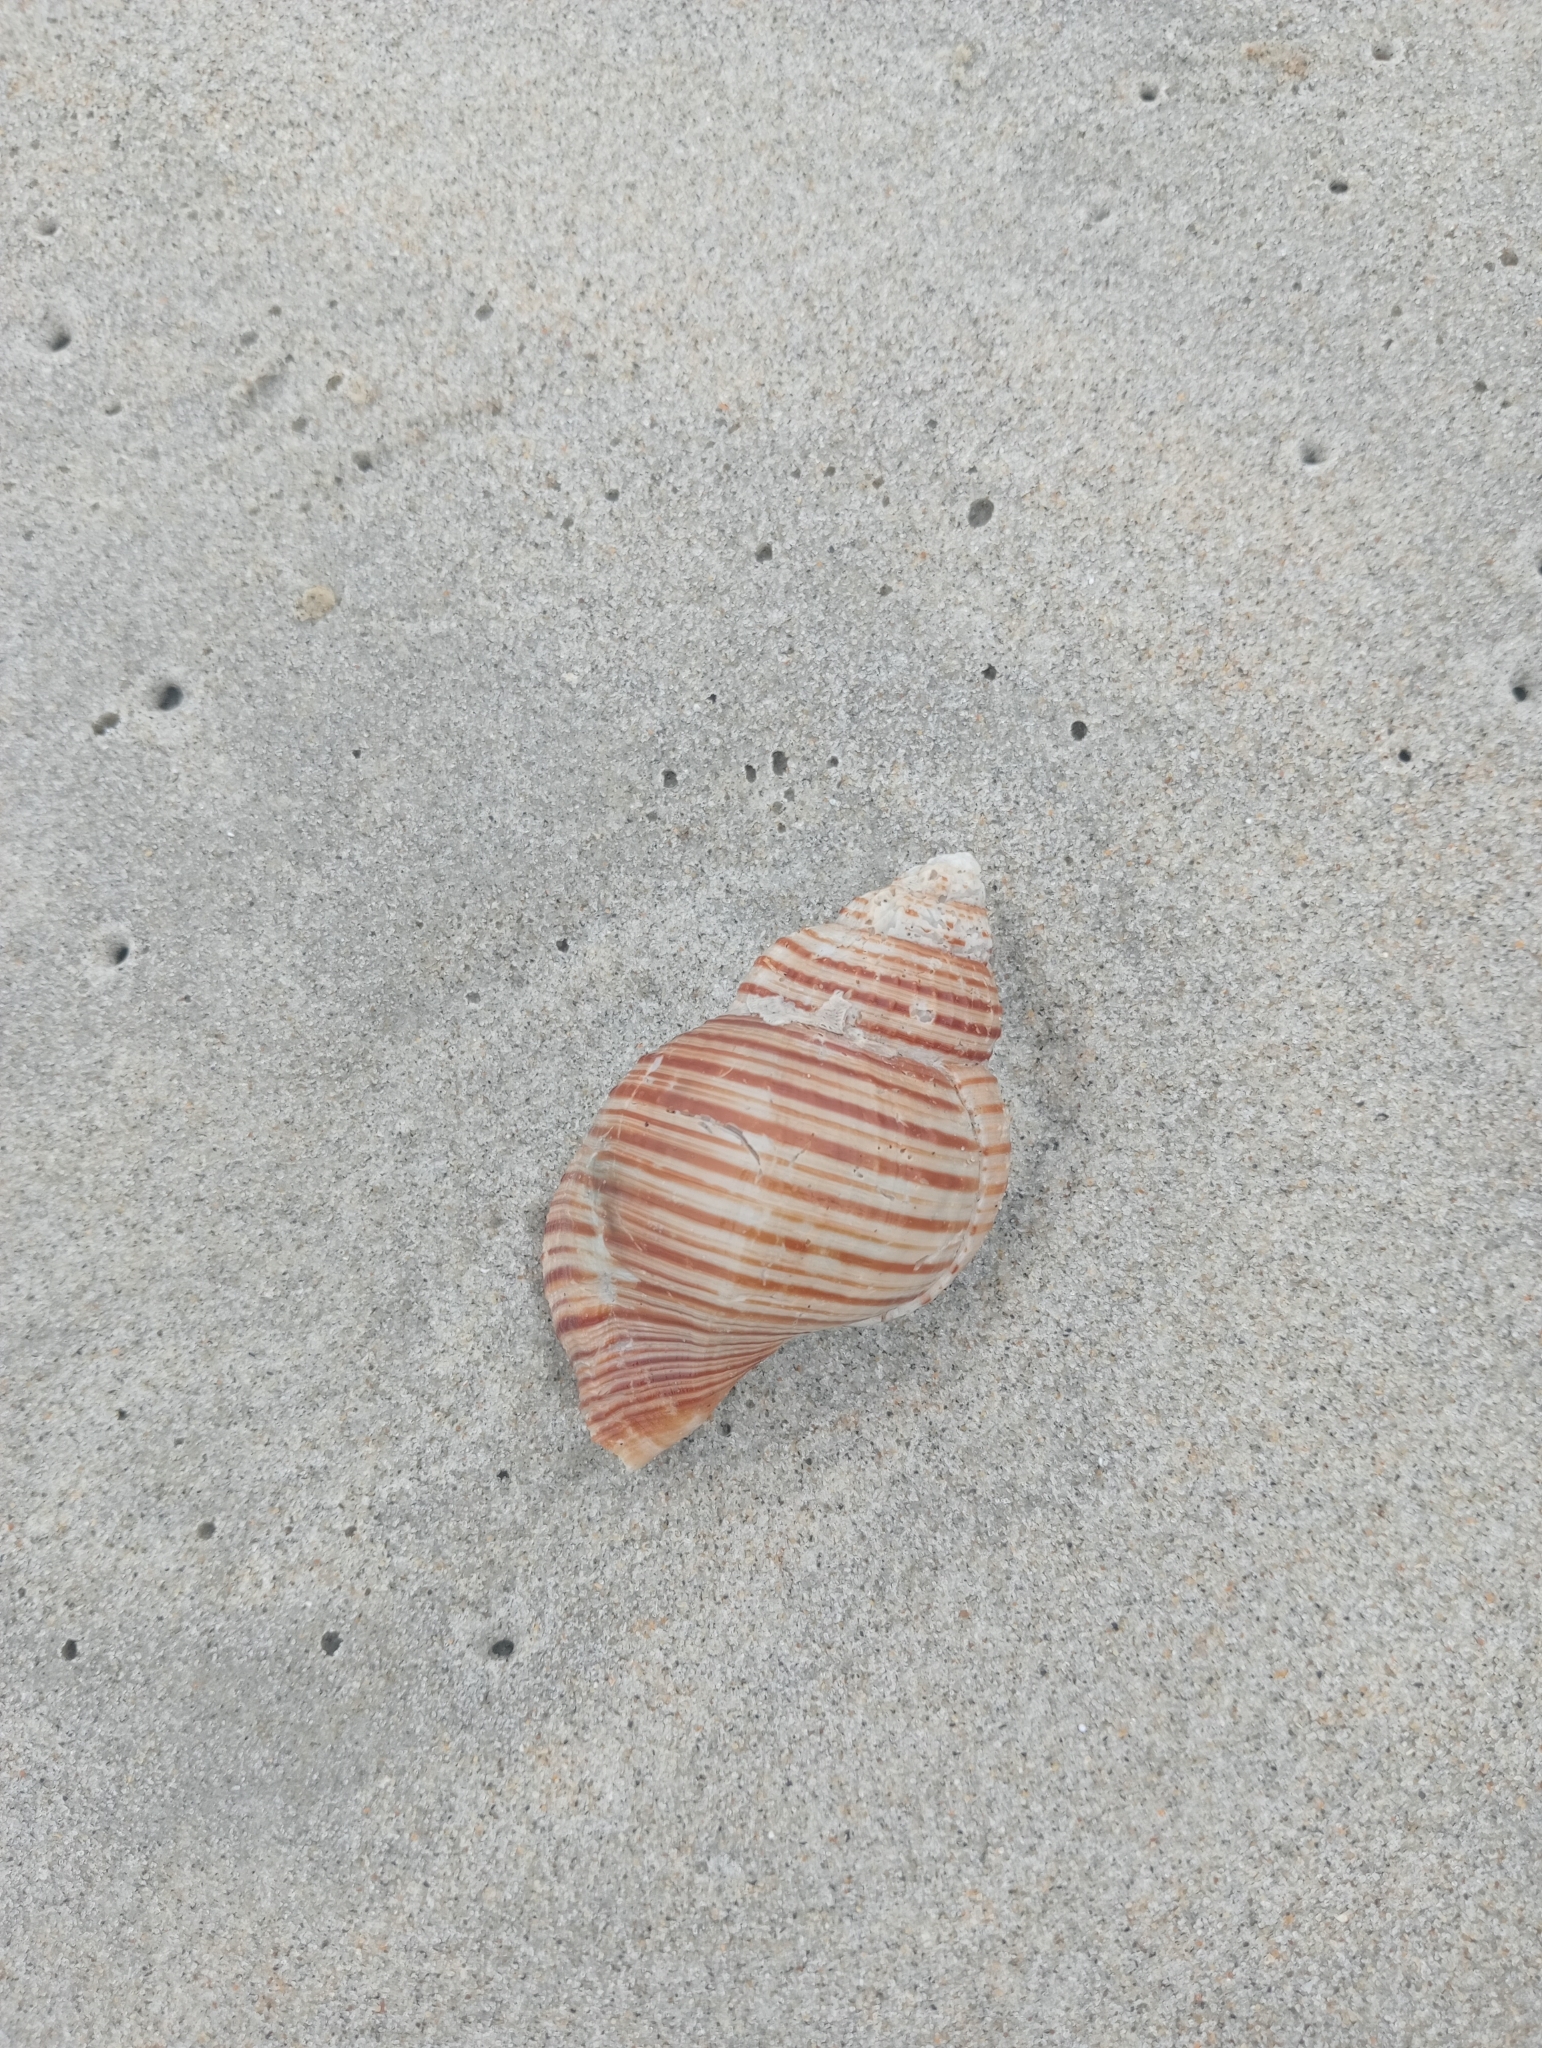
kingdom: Animalia
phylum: Mollusca
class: Gastropoda
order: Littorinimorpha
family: Cymatiidae
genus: Argobuccinum
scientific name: Argobuccinum pustulosum
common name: Pustular triton
